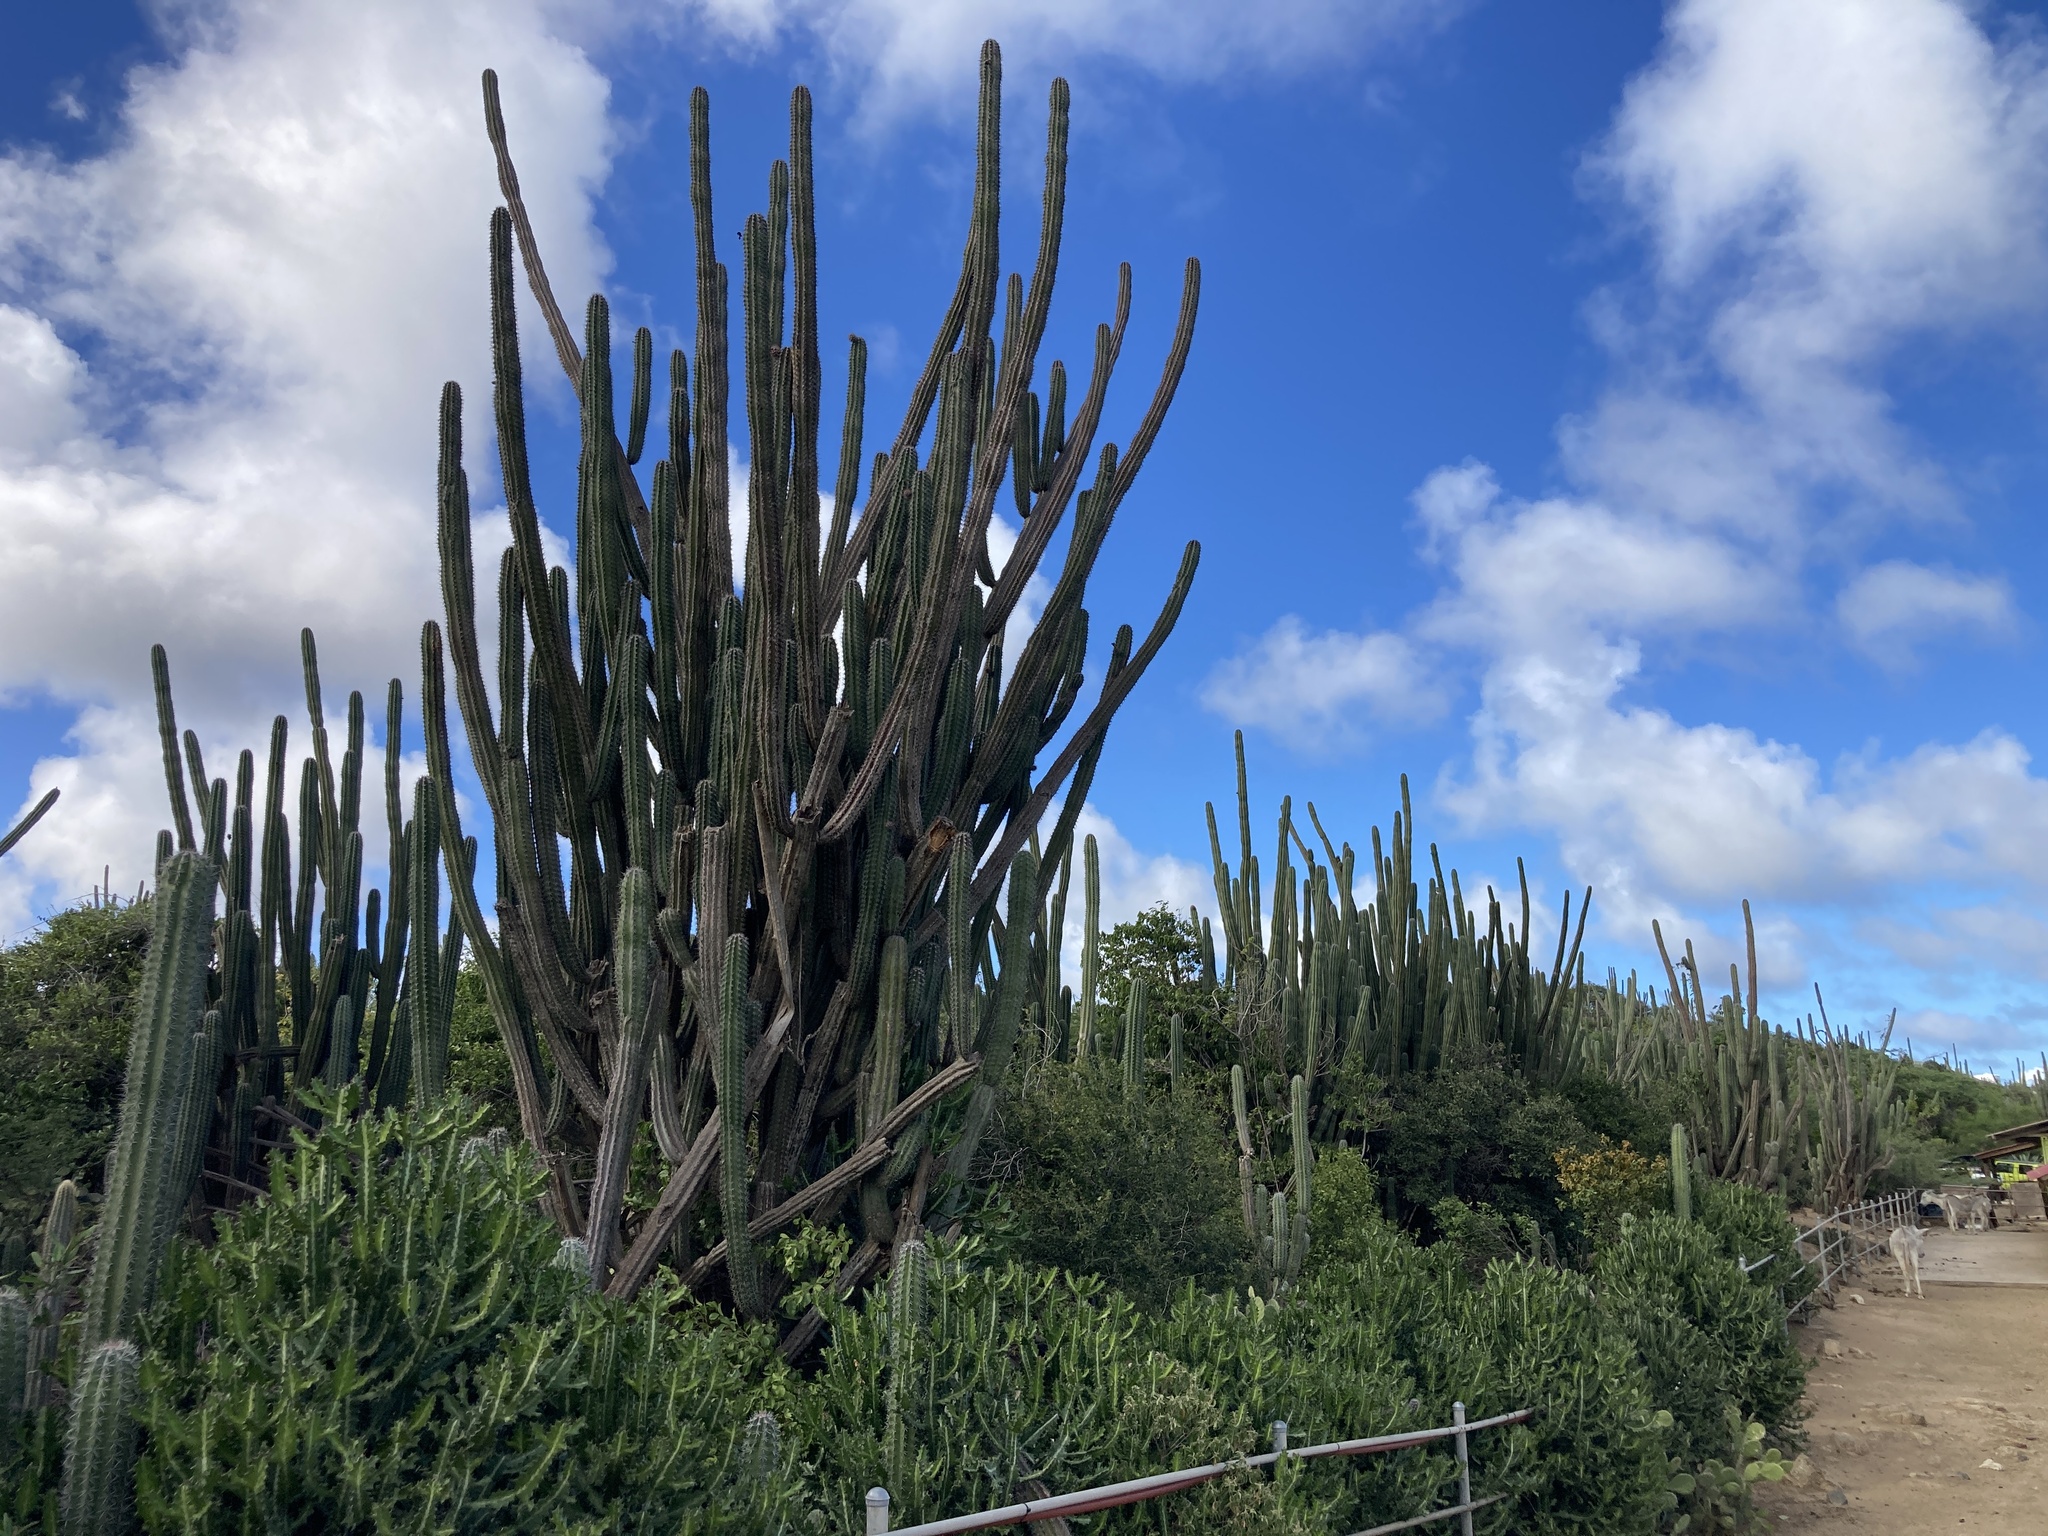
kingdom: Plantae
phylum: Tracheophyta
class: Magnoliopsida
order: Caryophyllales
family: Cactaceae
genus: Stenocereus
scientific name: Stenocereus griseus
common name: Tall candelabra cactus
